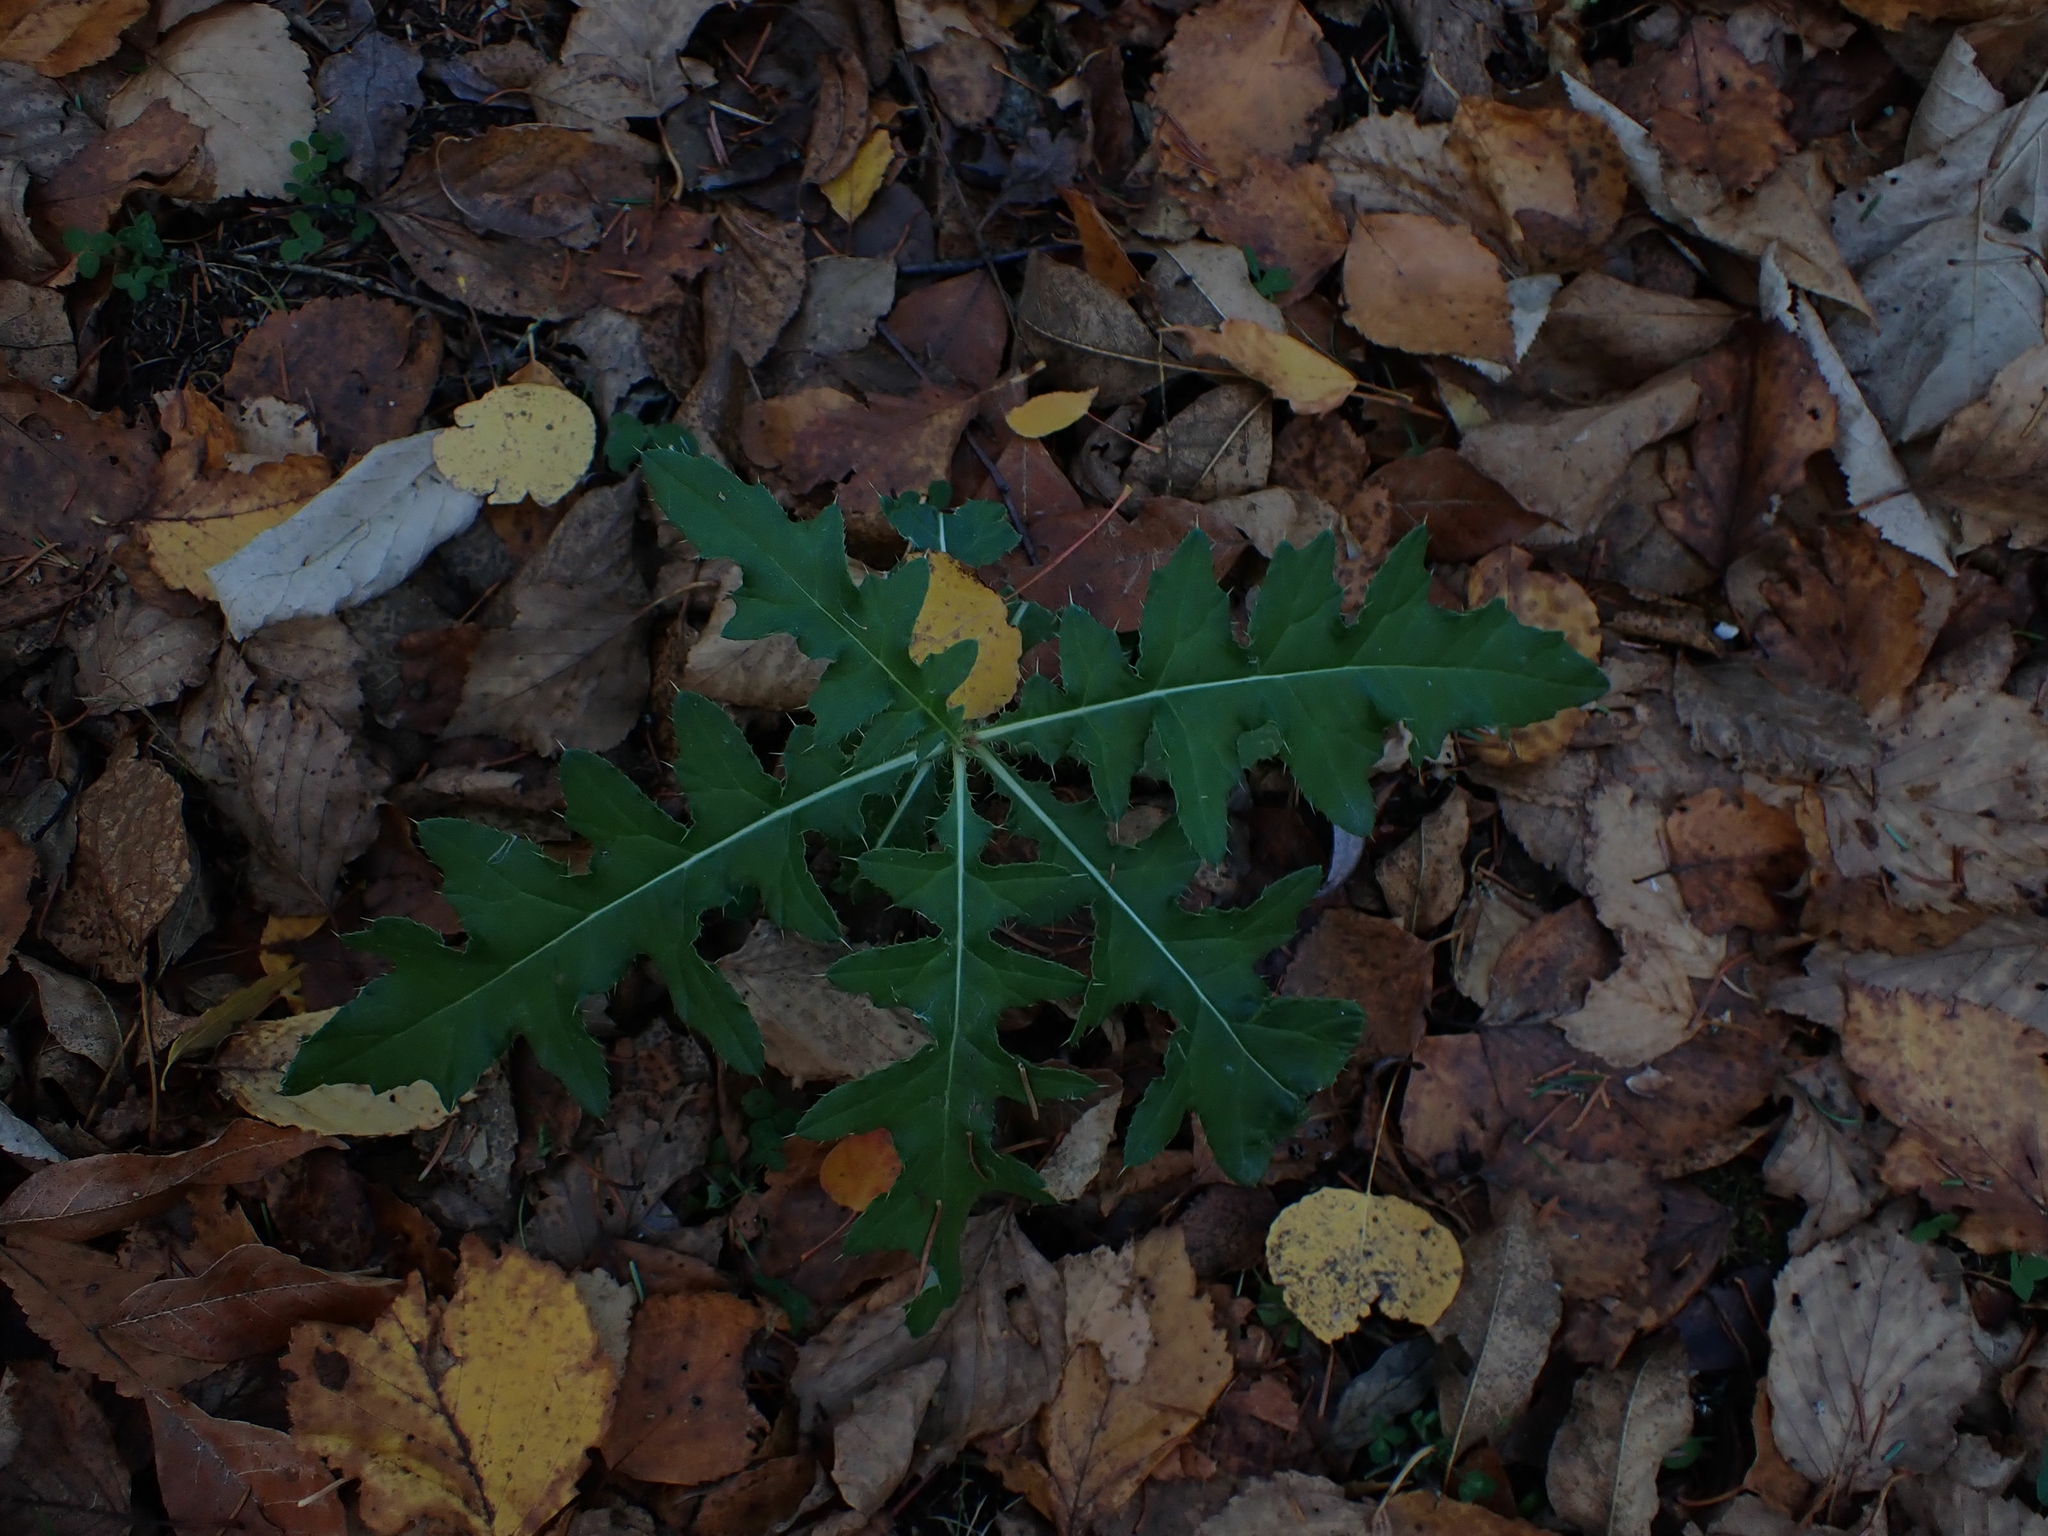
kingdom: Plantae
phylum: Tracheophyta
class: Magnoliopsida
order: Asterales
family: Asteraceae
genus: Cirsium
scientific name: Cirsium muticum
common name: Dunce-nettle
